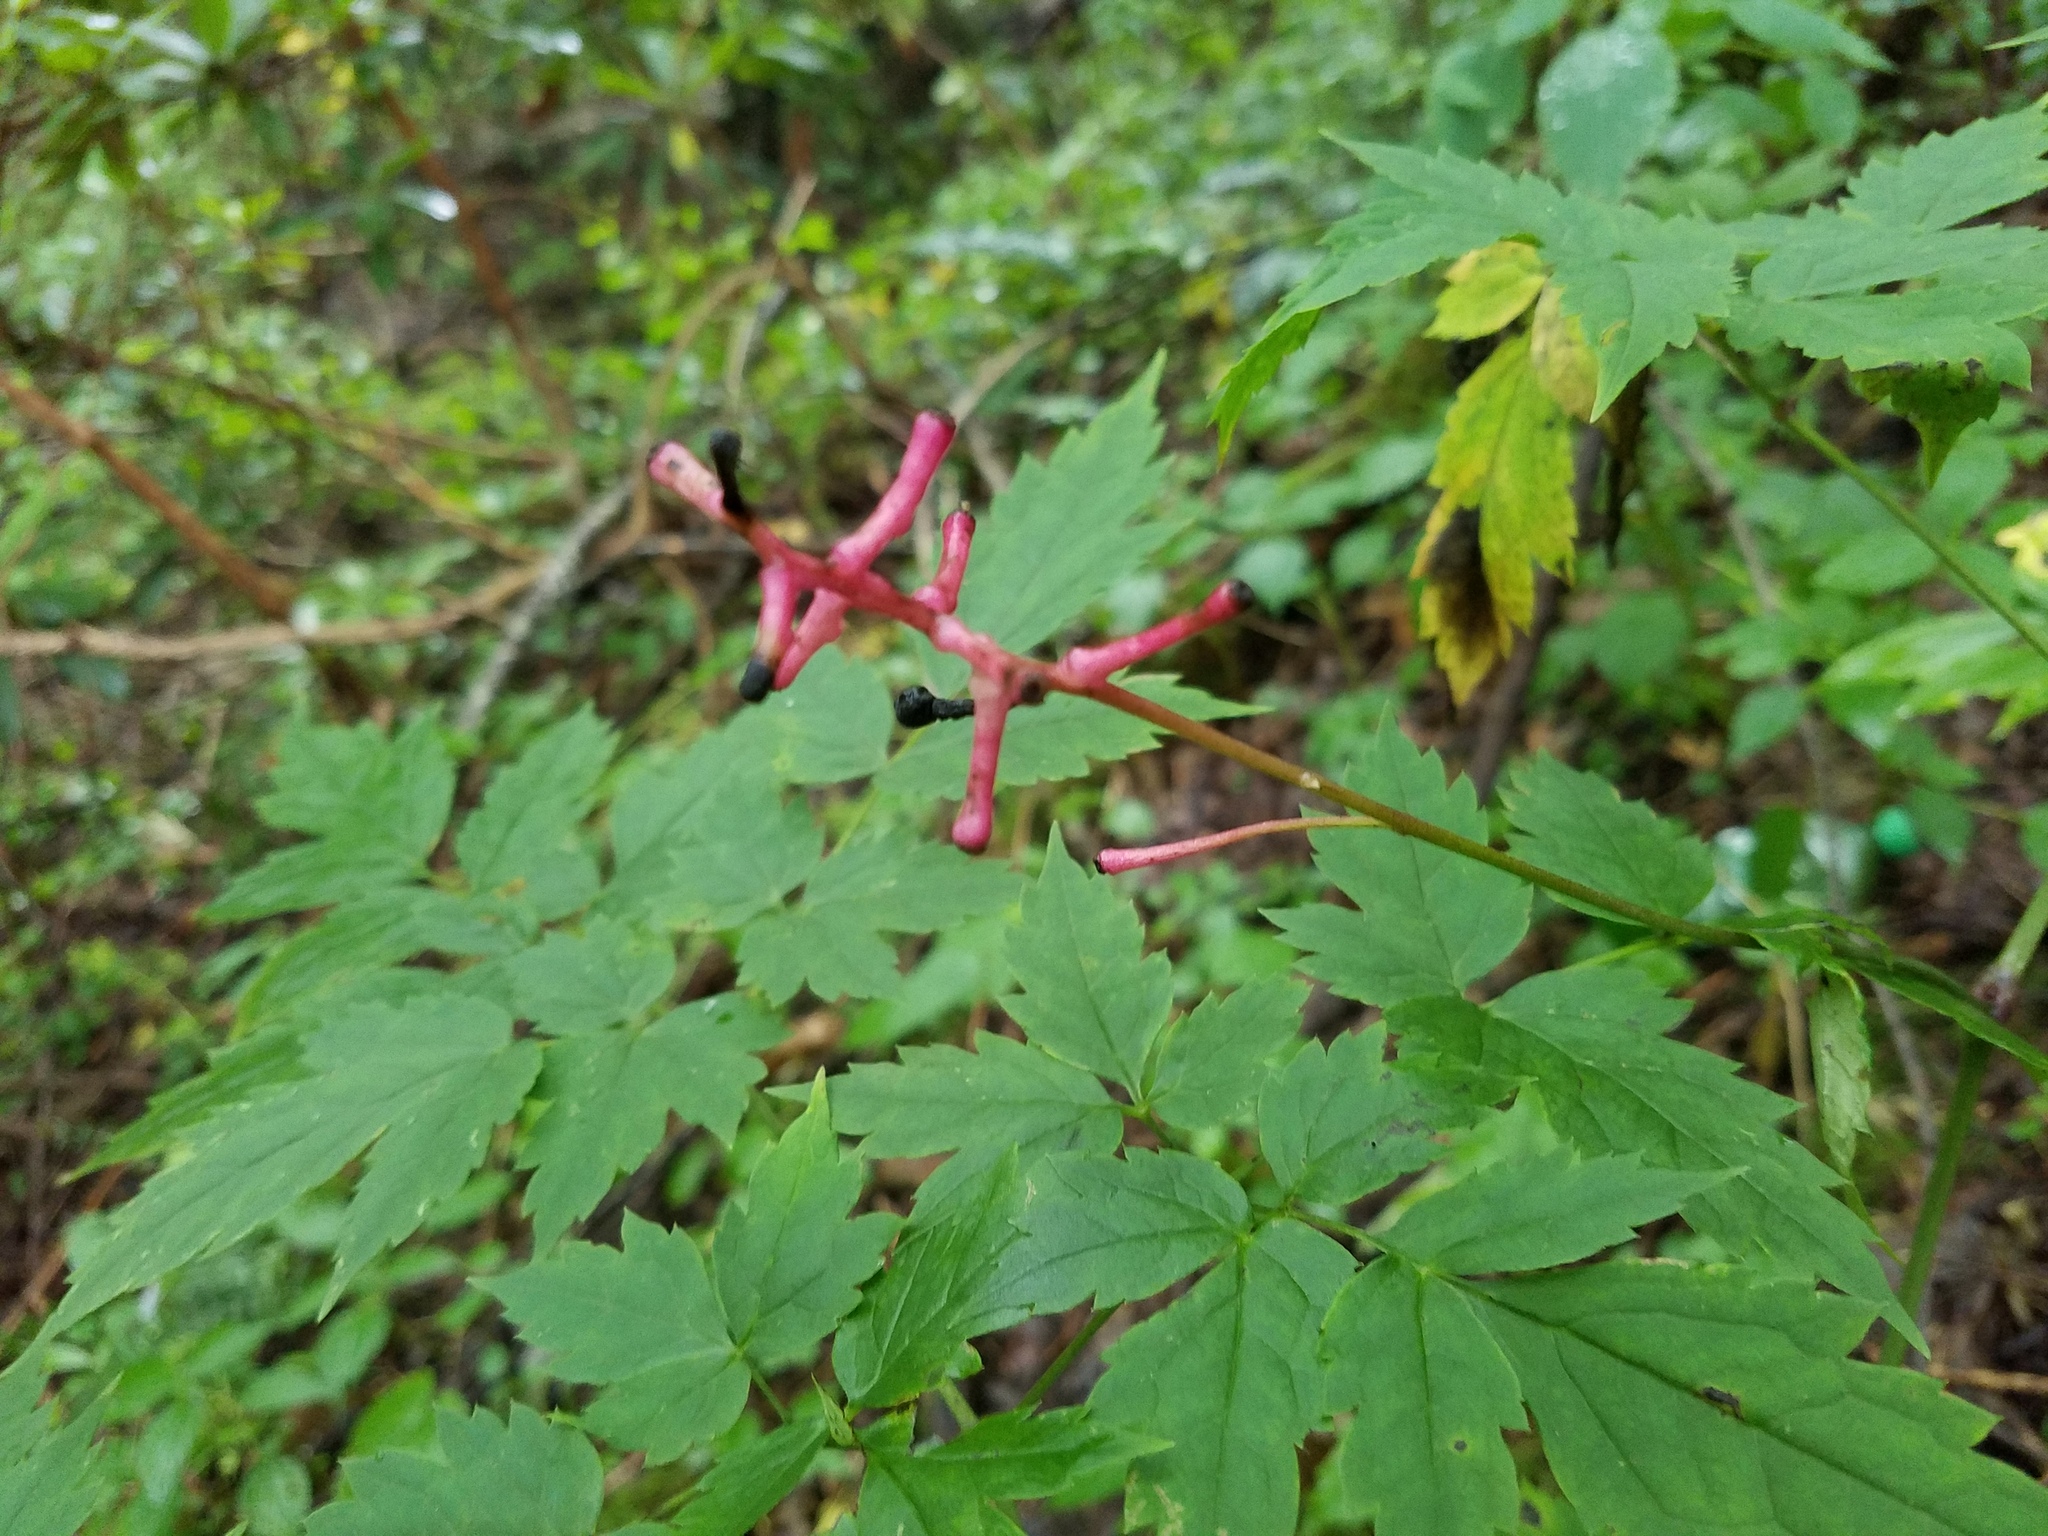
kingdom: Plantae
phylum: Tracheophyta
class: Magnoliopsida
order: Ranunculales
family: Ranunculaceae
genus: Actaea
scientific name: Actaea pachypoda
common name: Doll's-eyes
